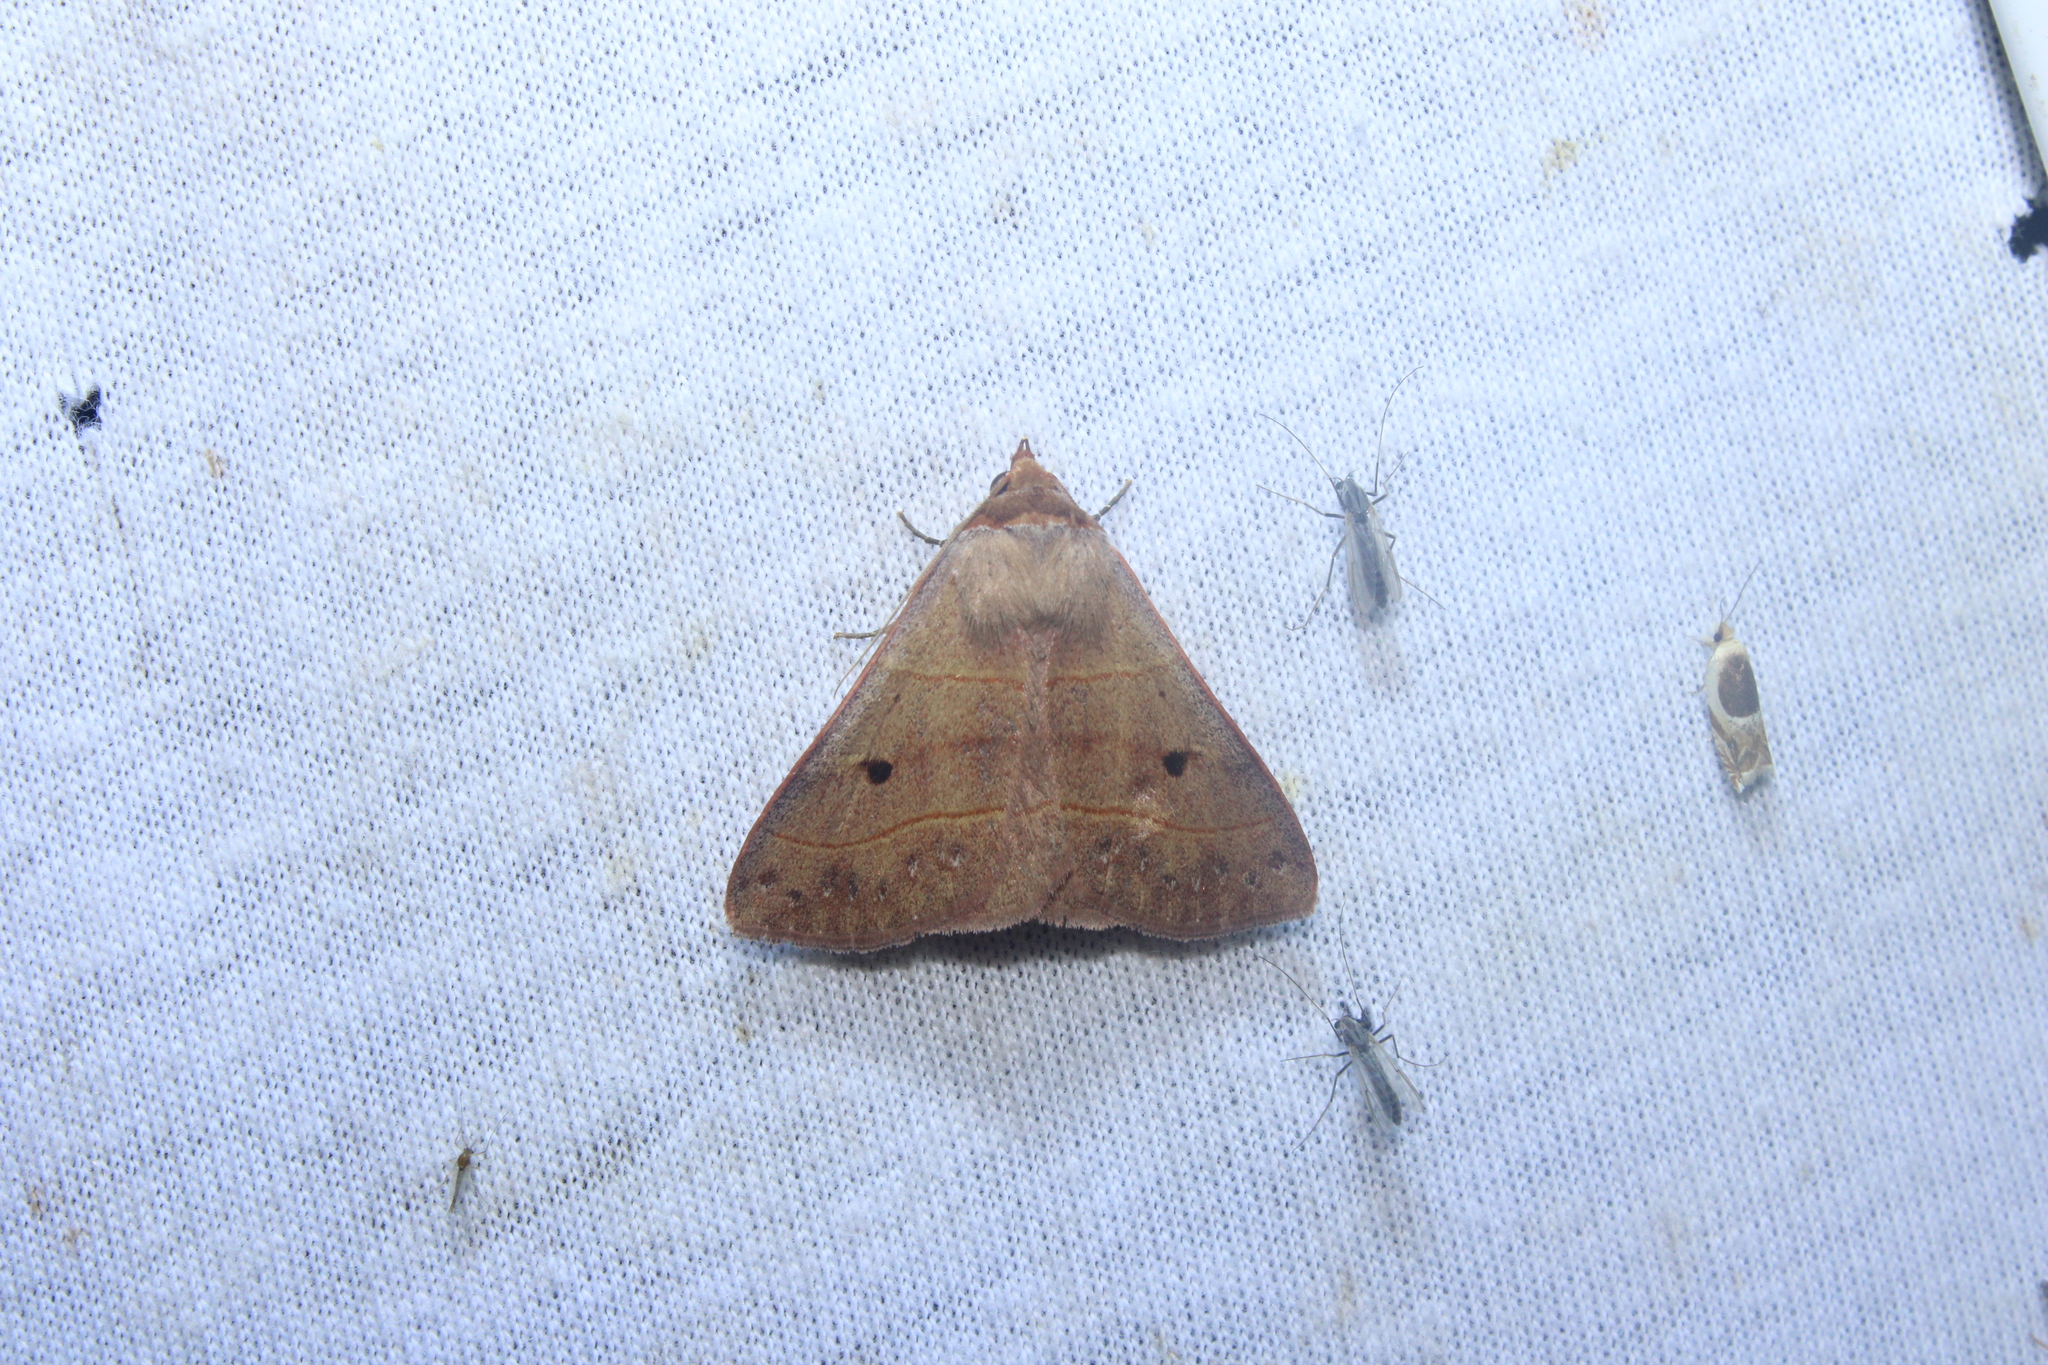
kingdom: Animalia
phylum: Arthropoda
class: Insecta
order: Lepidoptera
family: Erebidae
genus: Panopoda
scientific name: Panopoda rufimargo
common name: Red-lined panopoda moth
